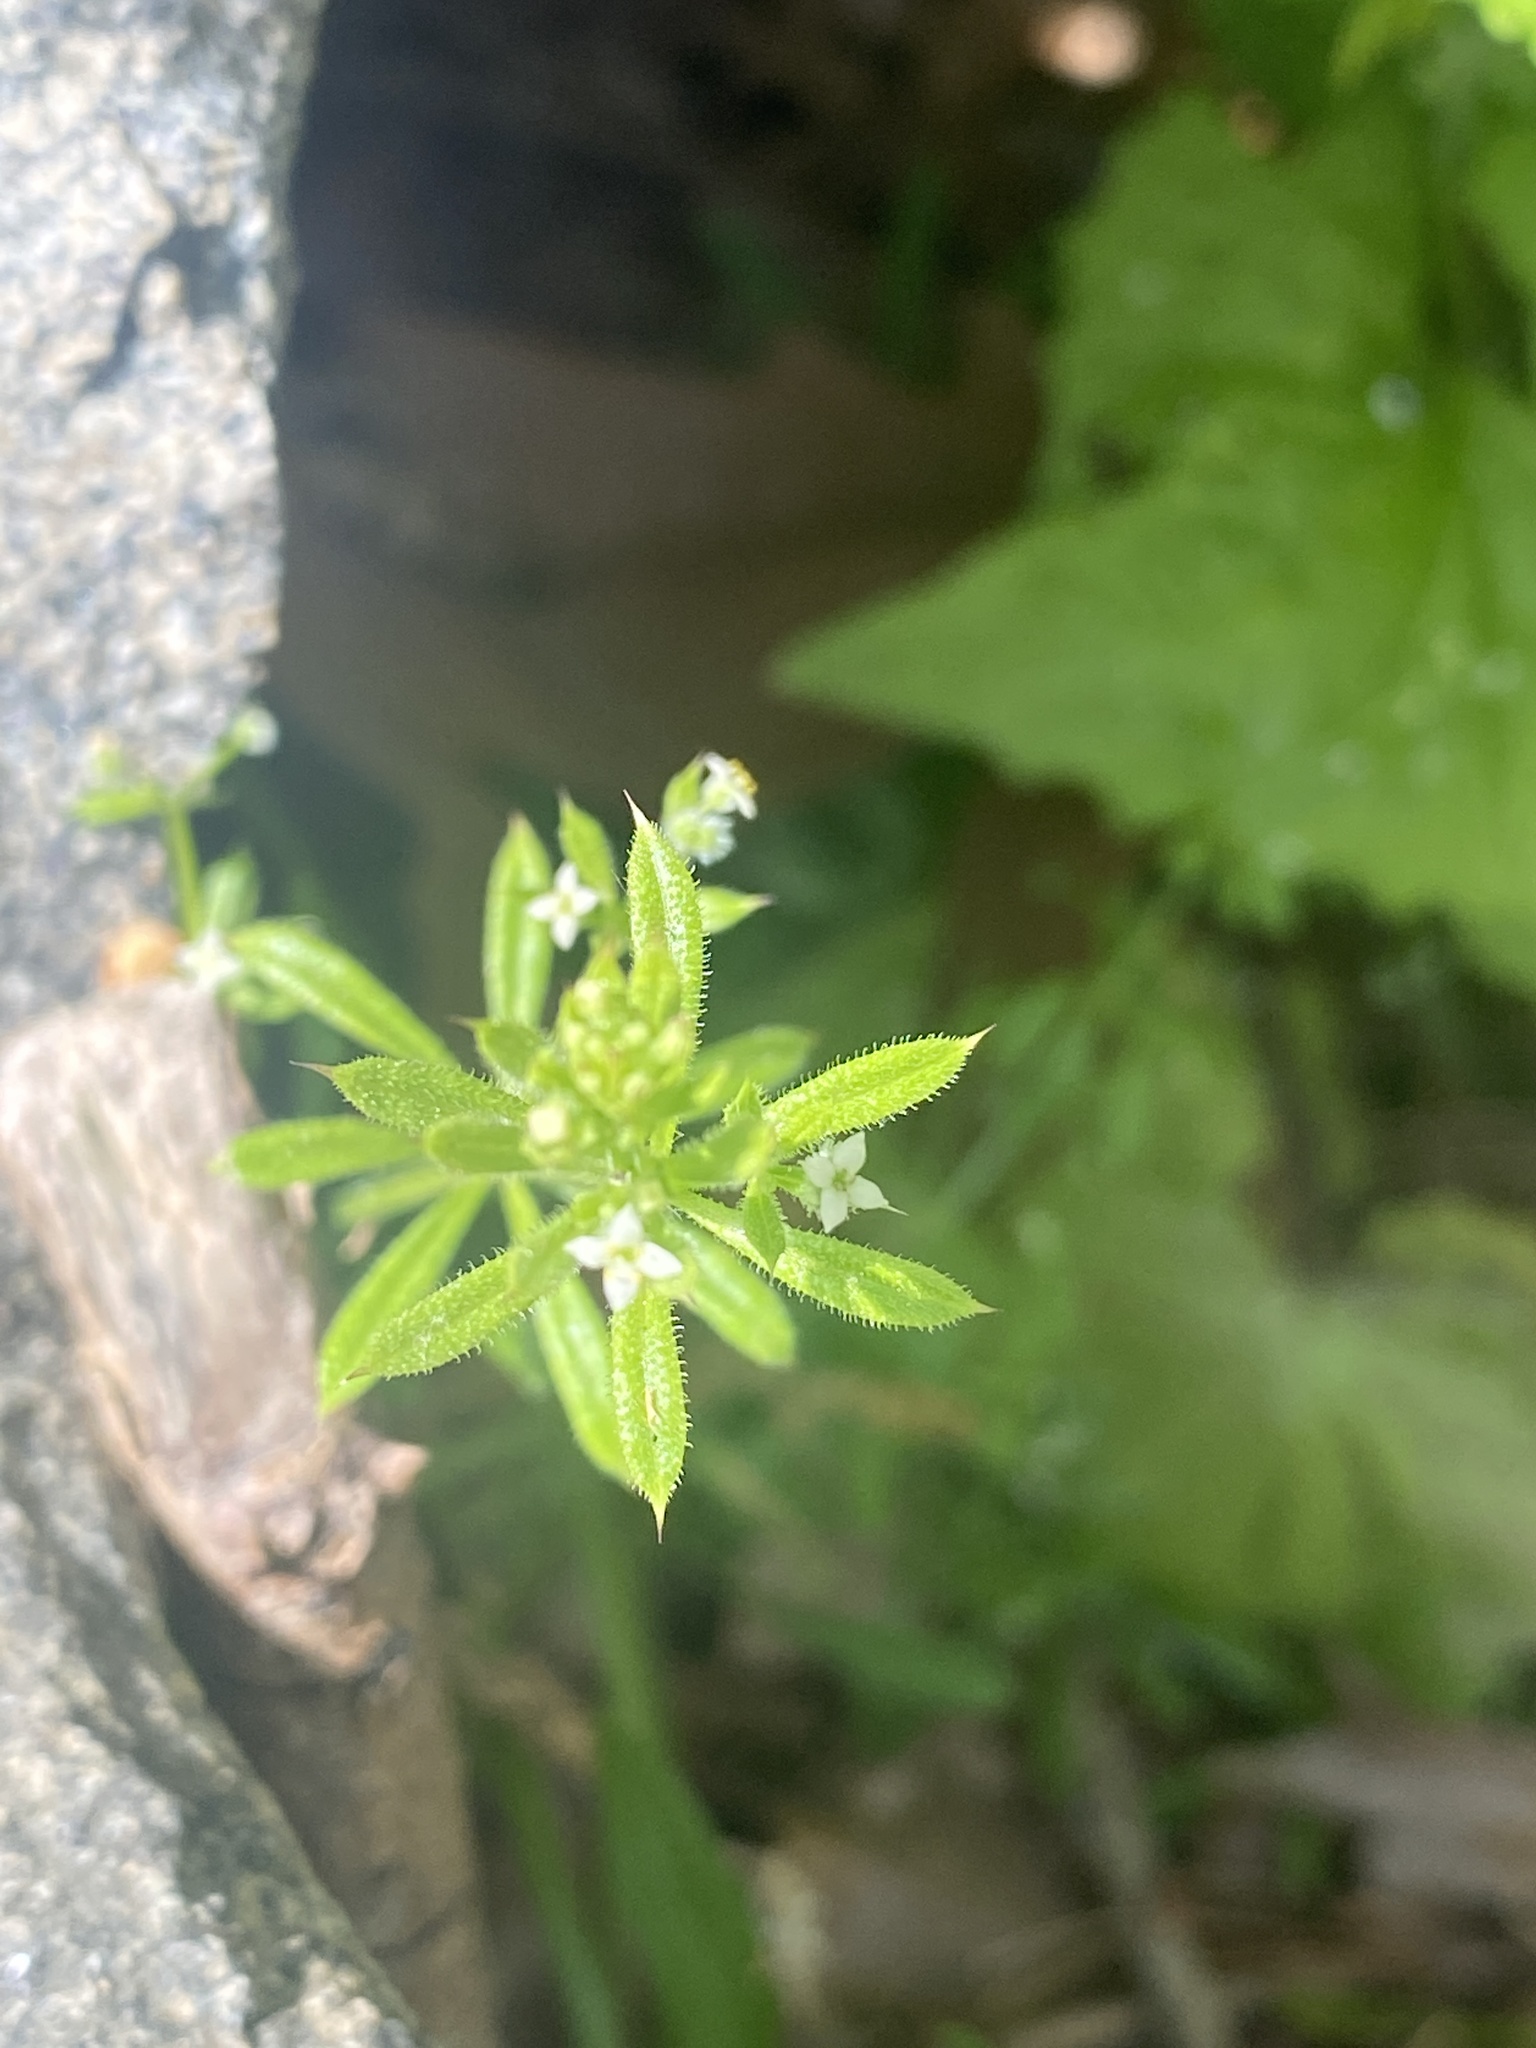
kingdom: Plantae
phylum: Tracheophyta
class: Magnoliopsida
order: Gentianales
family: Rubiaceae
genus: Galium
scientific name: Galium aparine
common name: Cleavers
